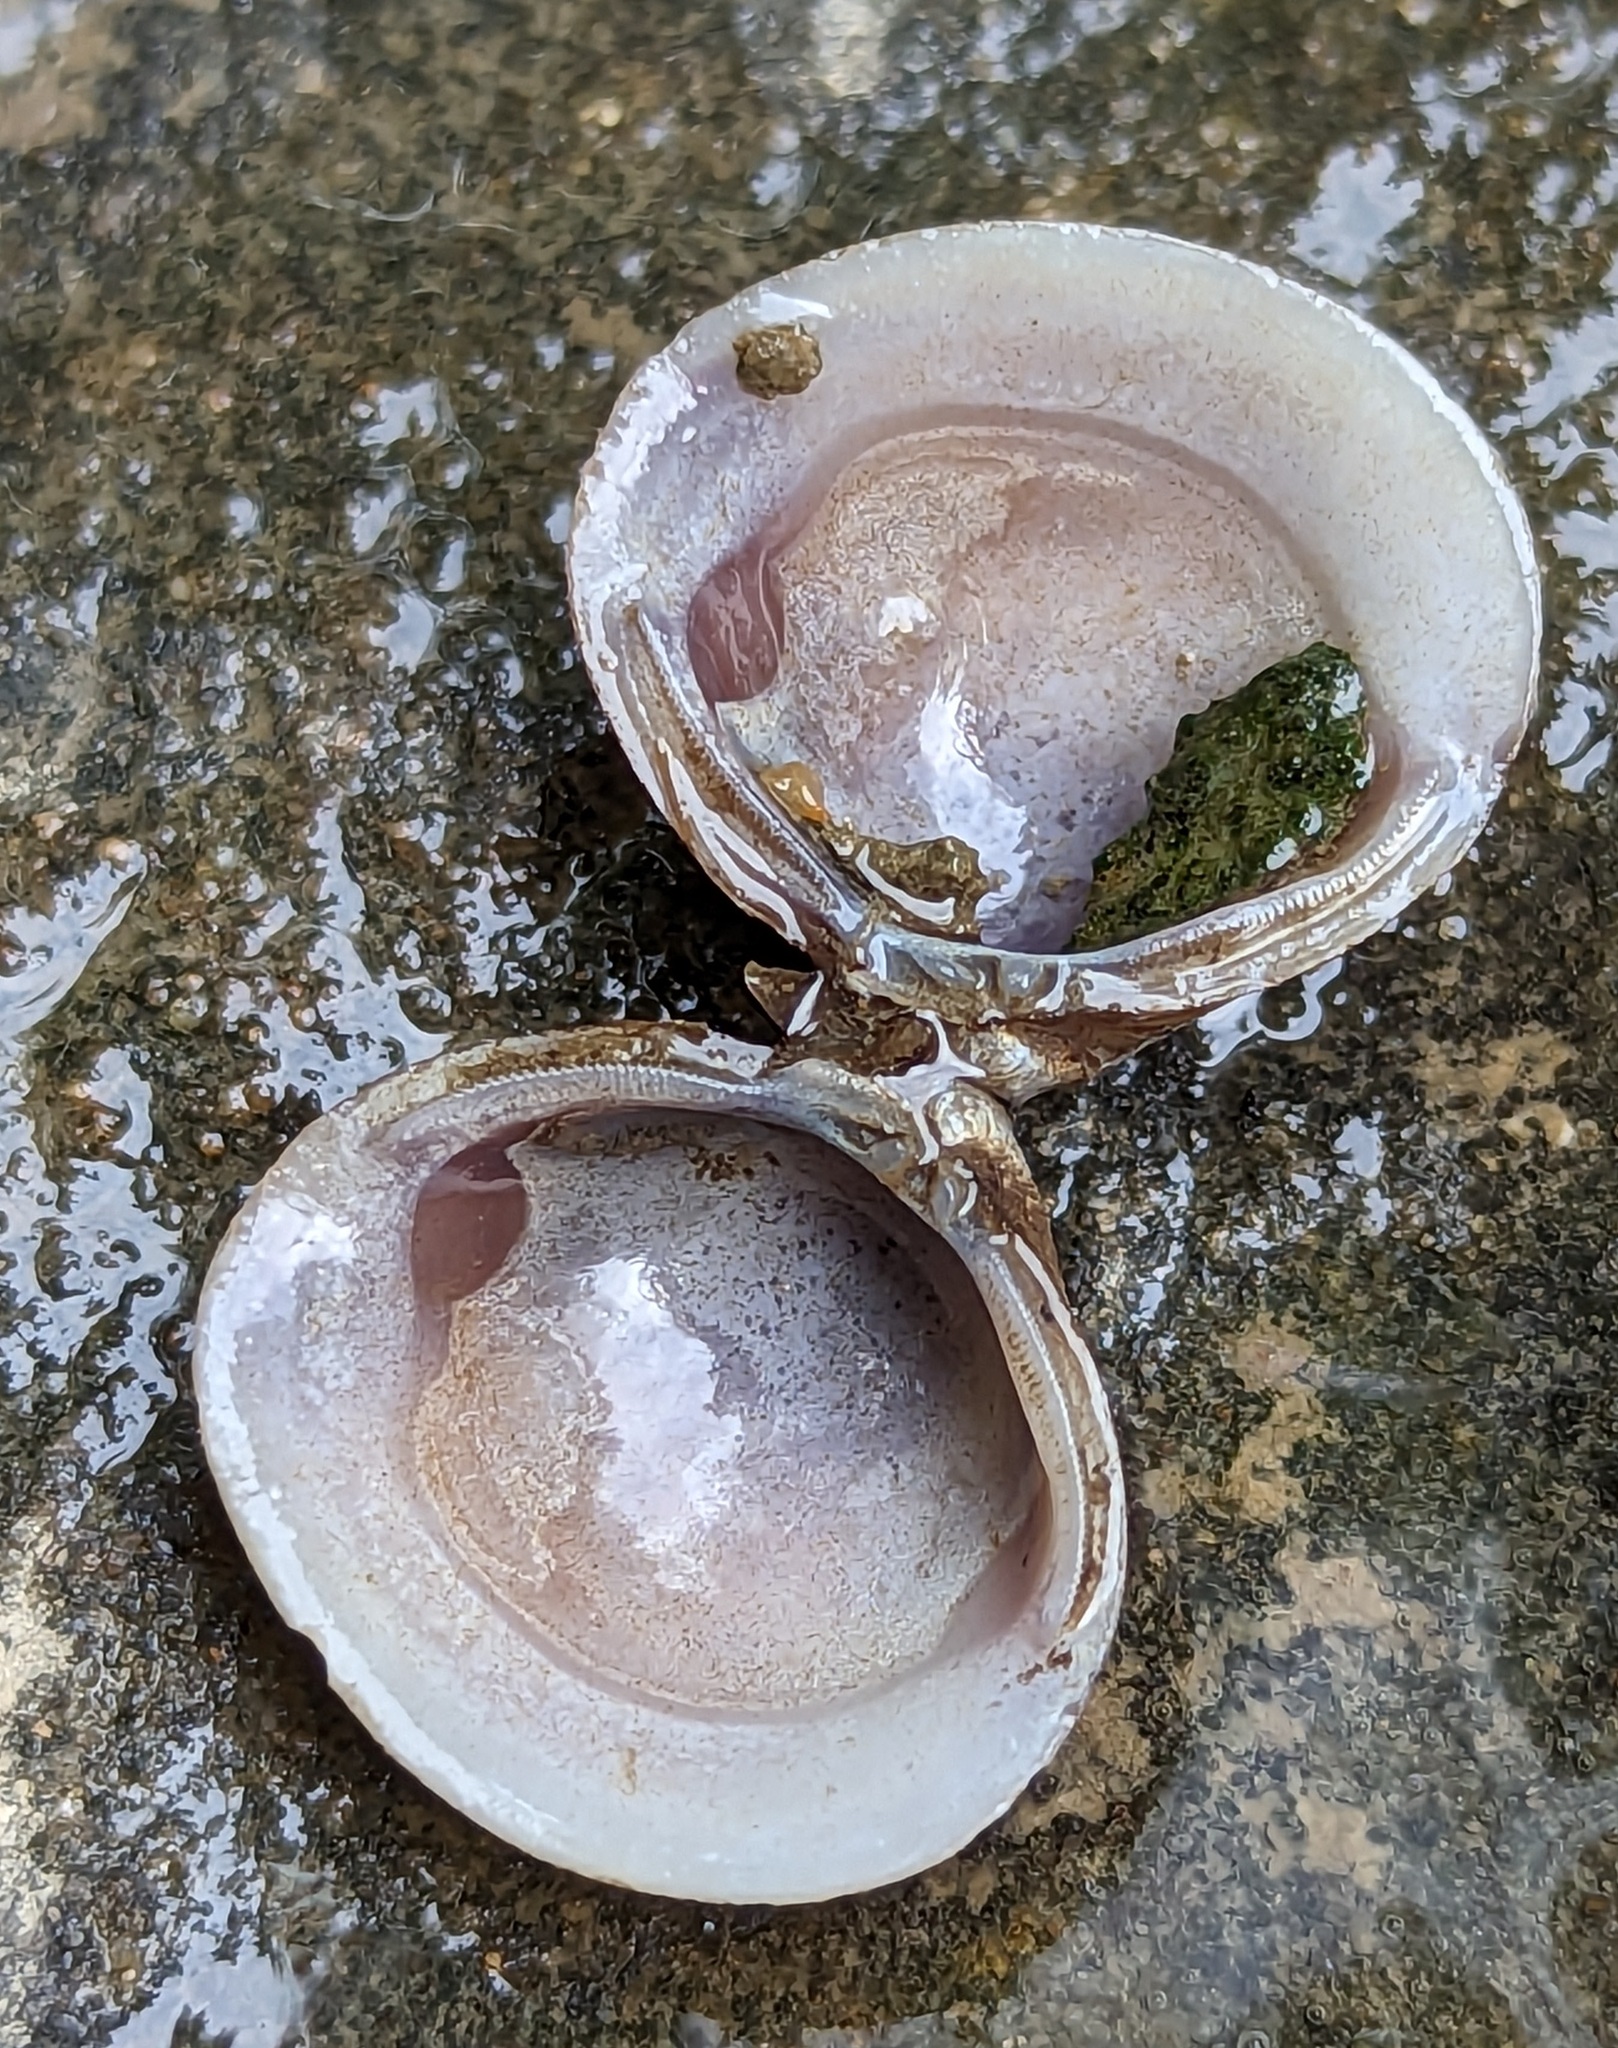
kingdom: Animalia
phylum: Mollusca
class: Bivalvia
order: Venerida
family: Cyrenidae
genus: Corbicula
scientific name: Corbicula fluminea
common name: Asian clam
